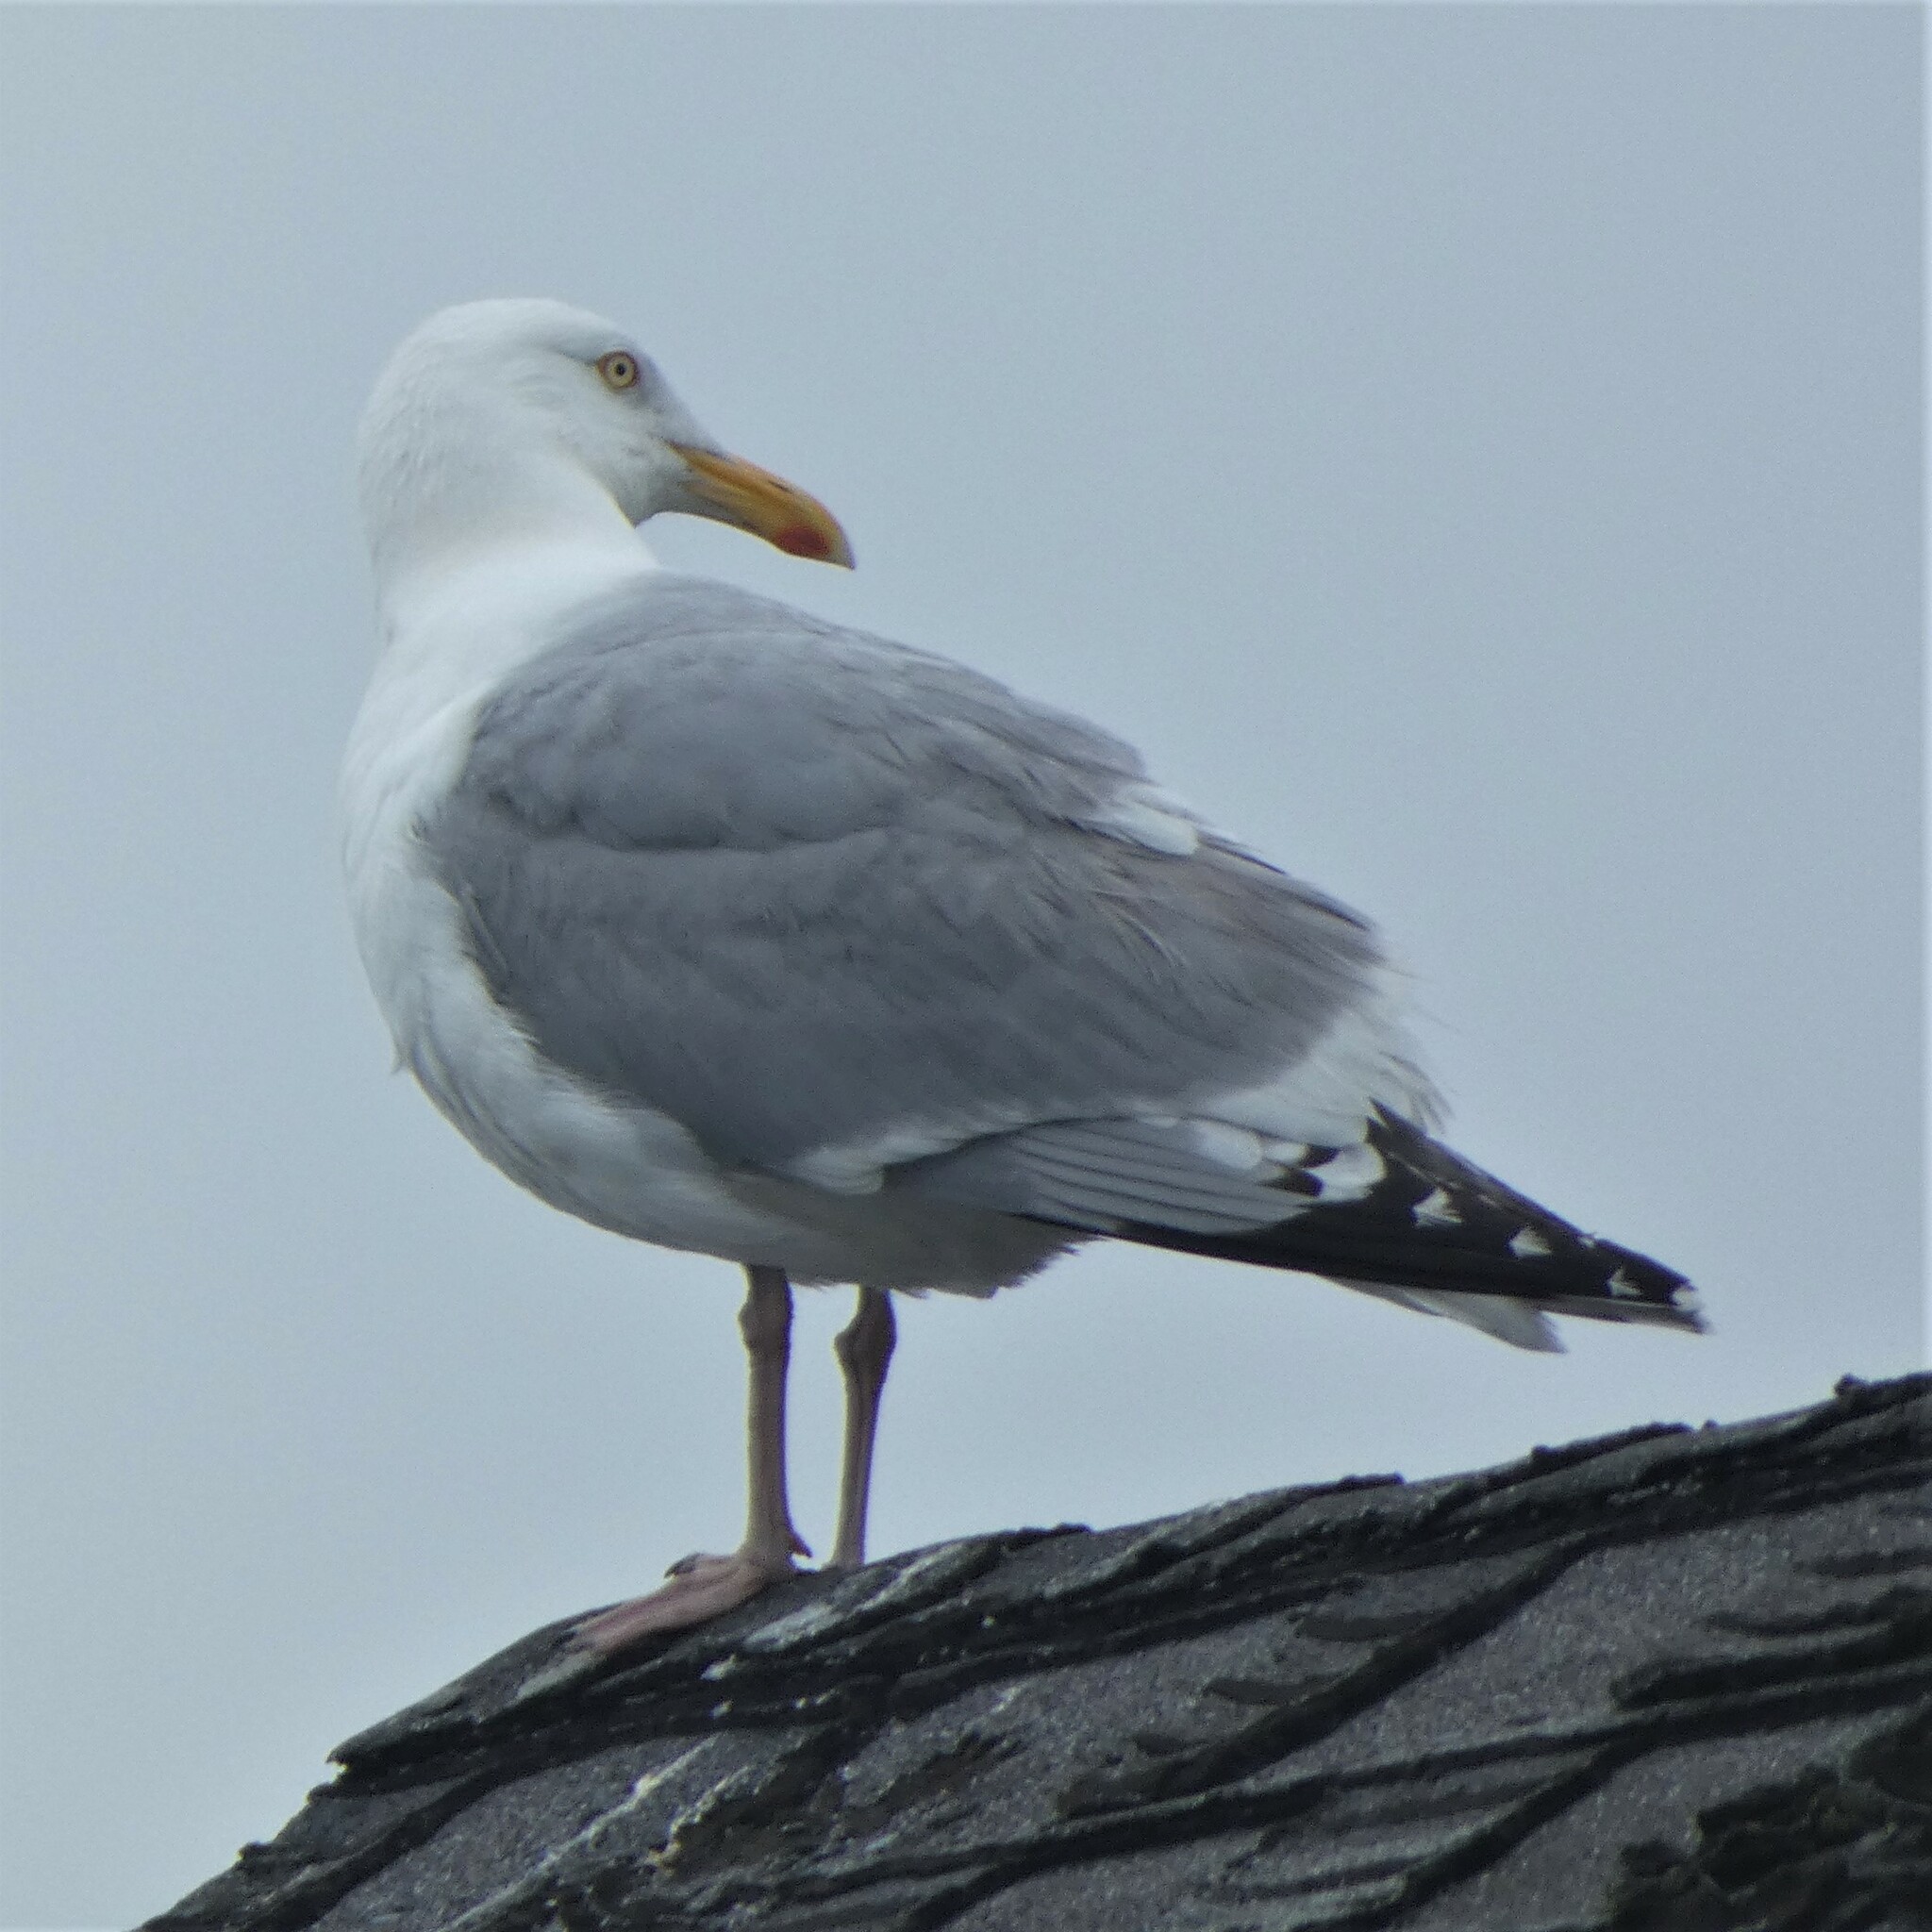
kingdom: Animalia
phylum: Chordata
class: Aves
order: Charadriiformes
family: Laridae
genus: Larus
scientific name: Larus argentatus
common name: Herring gull
